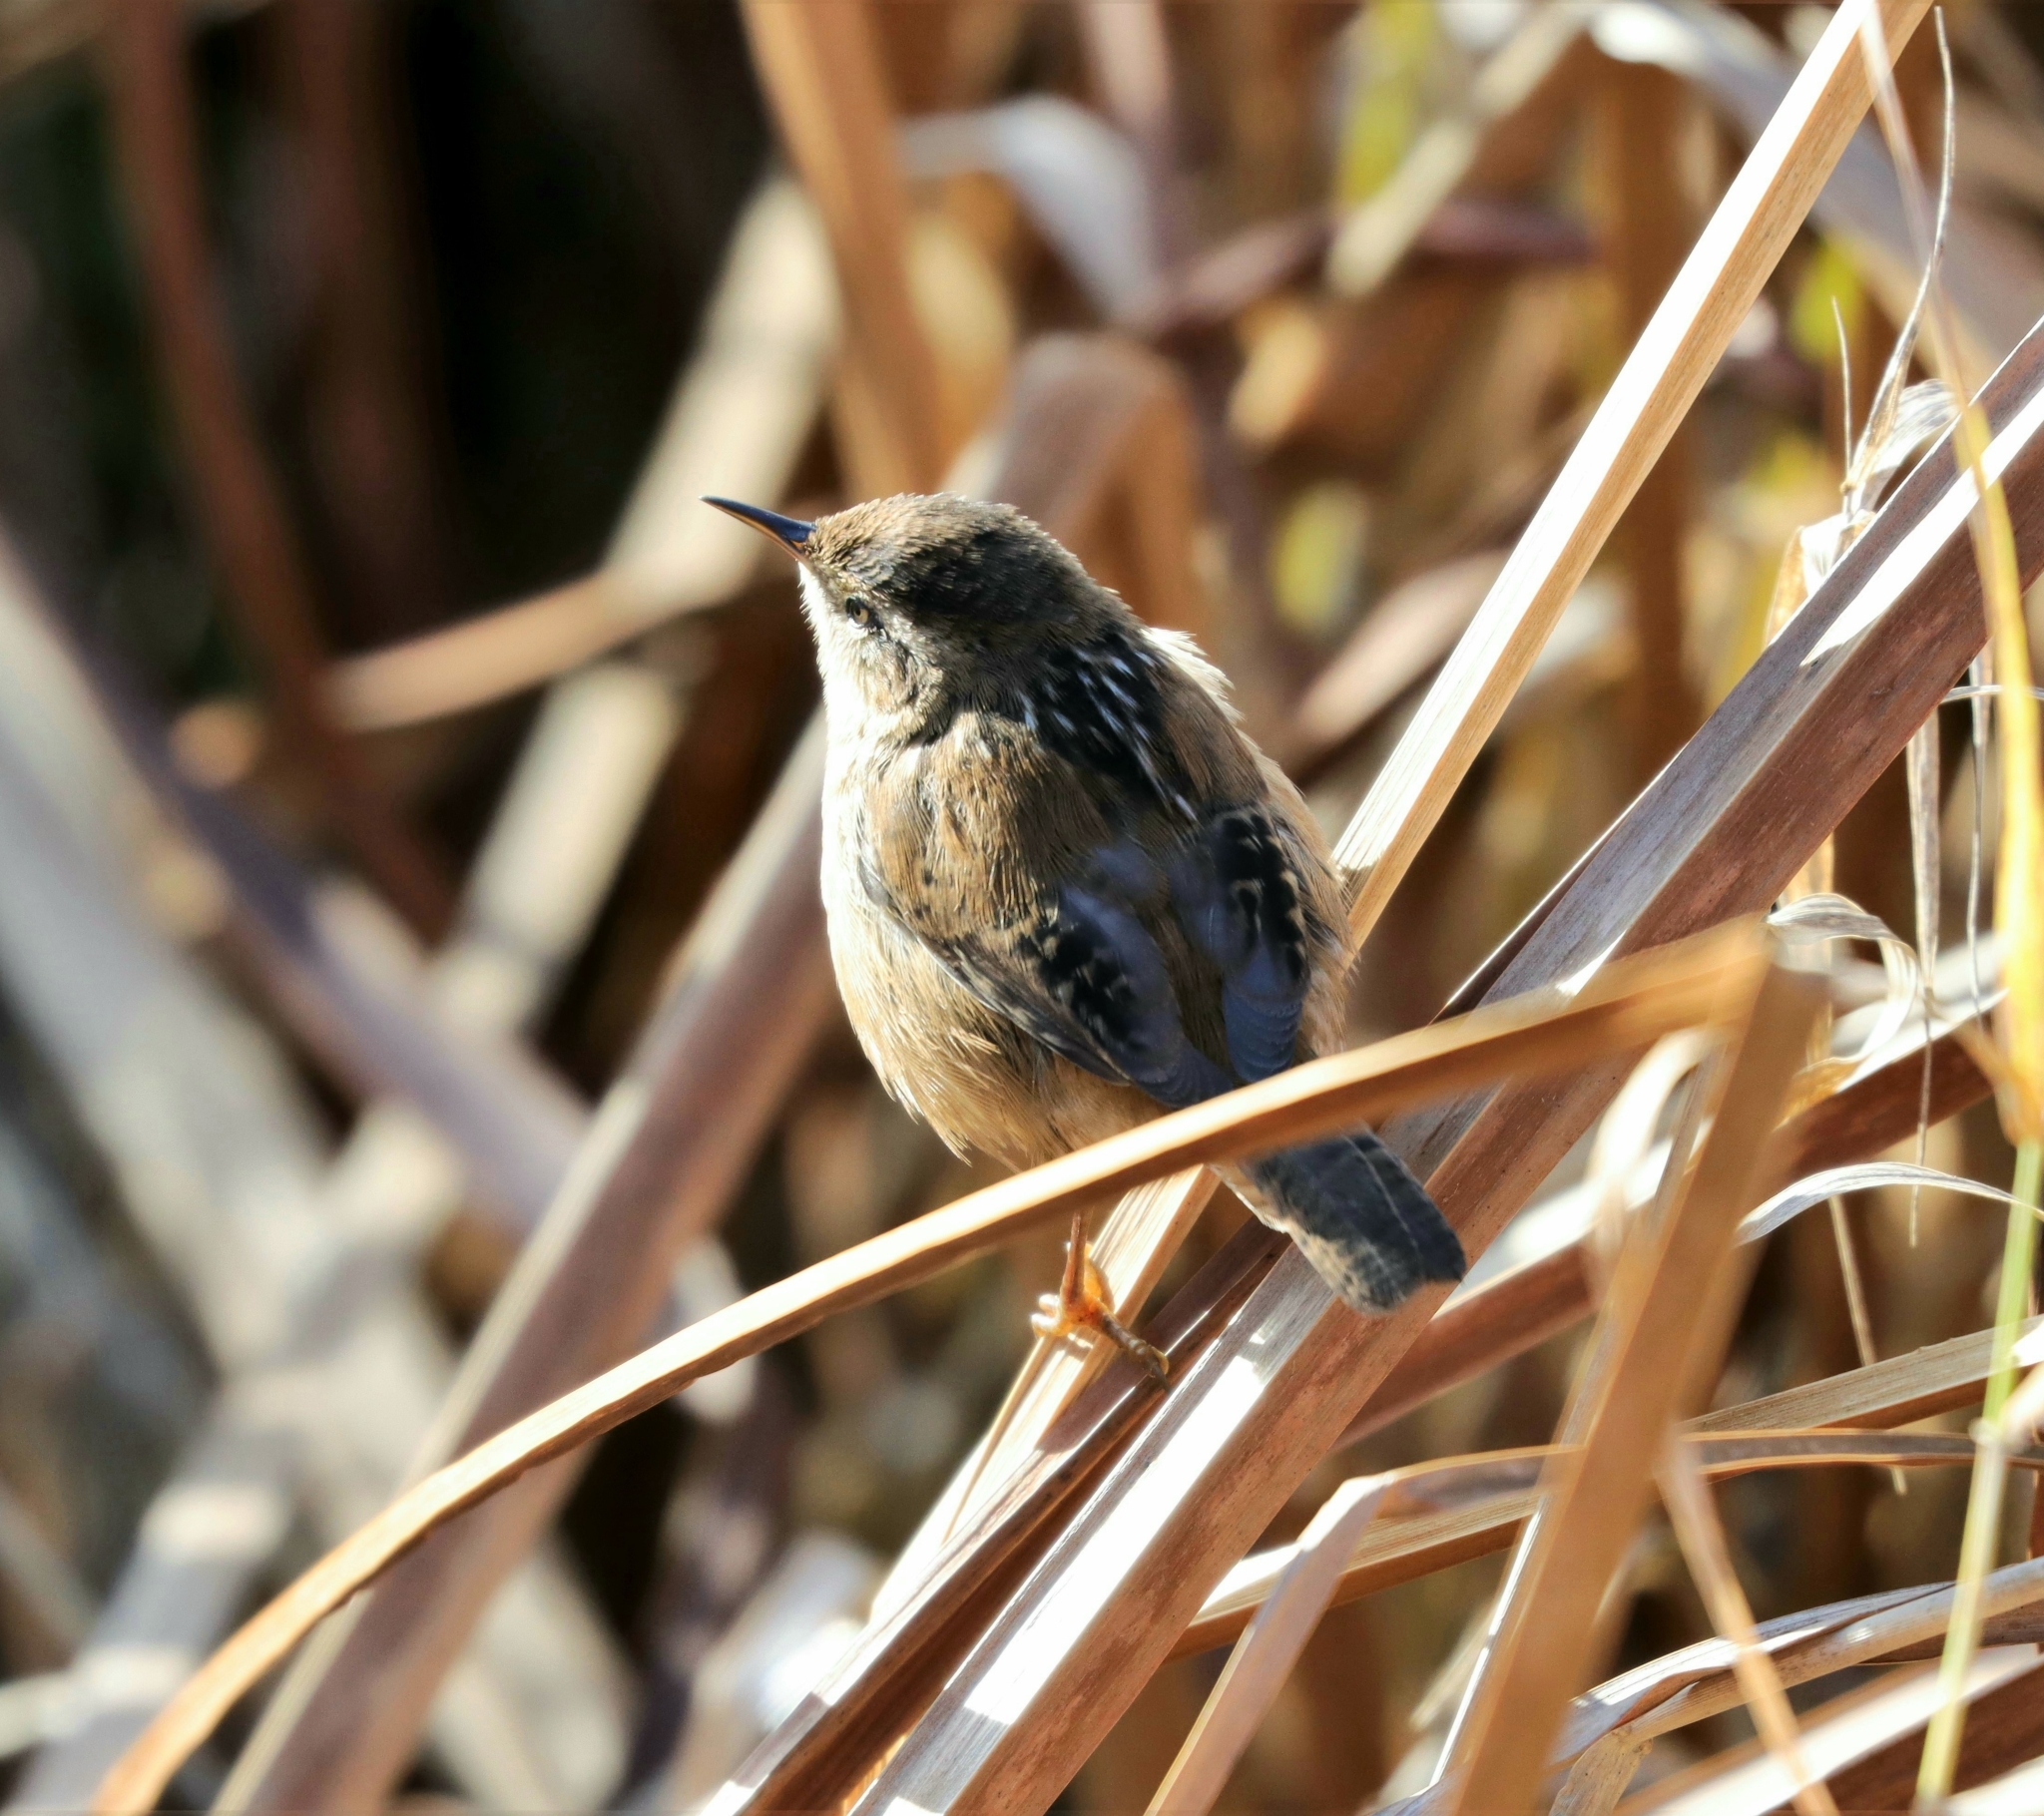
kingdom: Animalia
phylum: Chordata
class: Aves
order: Passeriformes
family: Troglodytidae
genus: Cistothorus
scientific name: Cistothorus palustris
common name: Marsh wren
